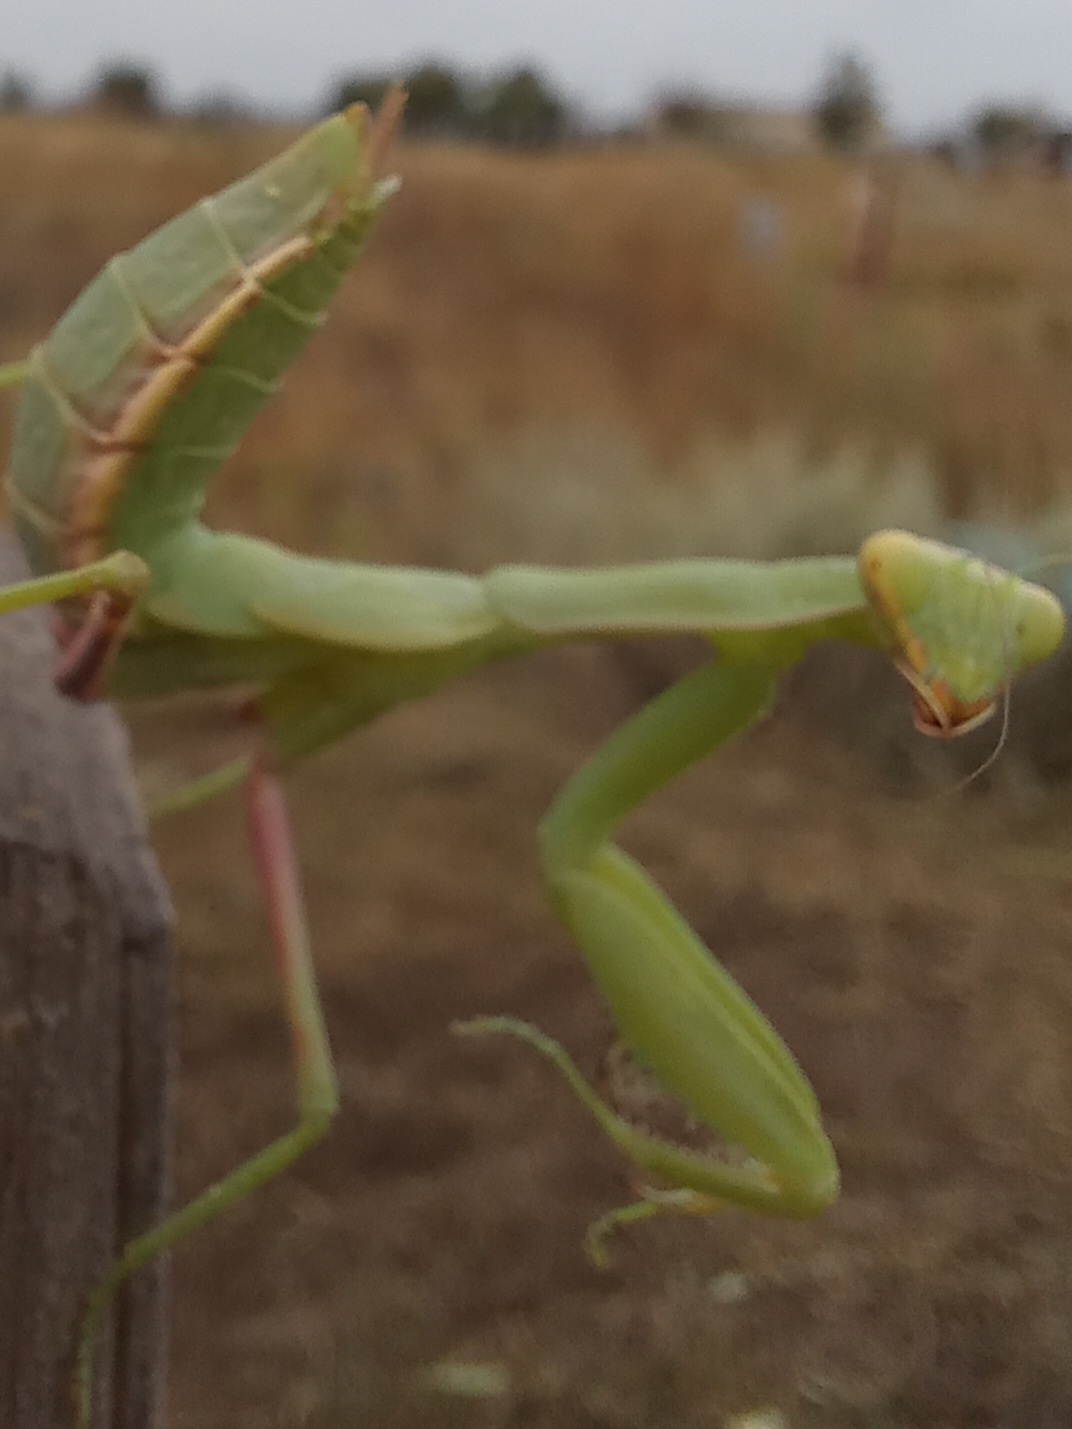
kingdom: Animalia
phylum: Arthropoda
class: Insecta
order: Mantodea
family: Mantidae
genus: Hierodula
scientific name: Hierodula transcaucasica
